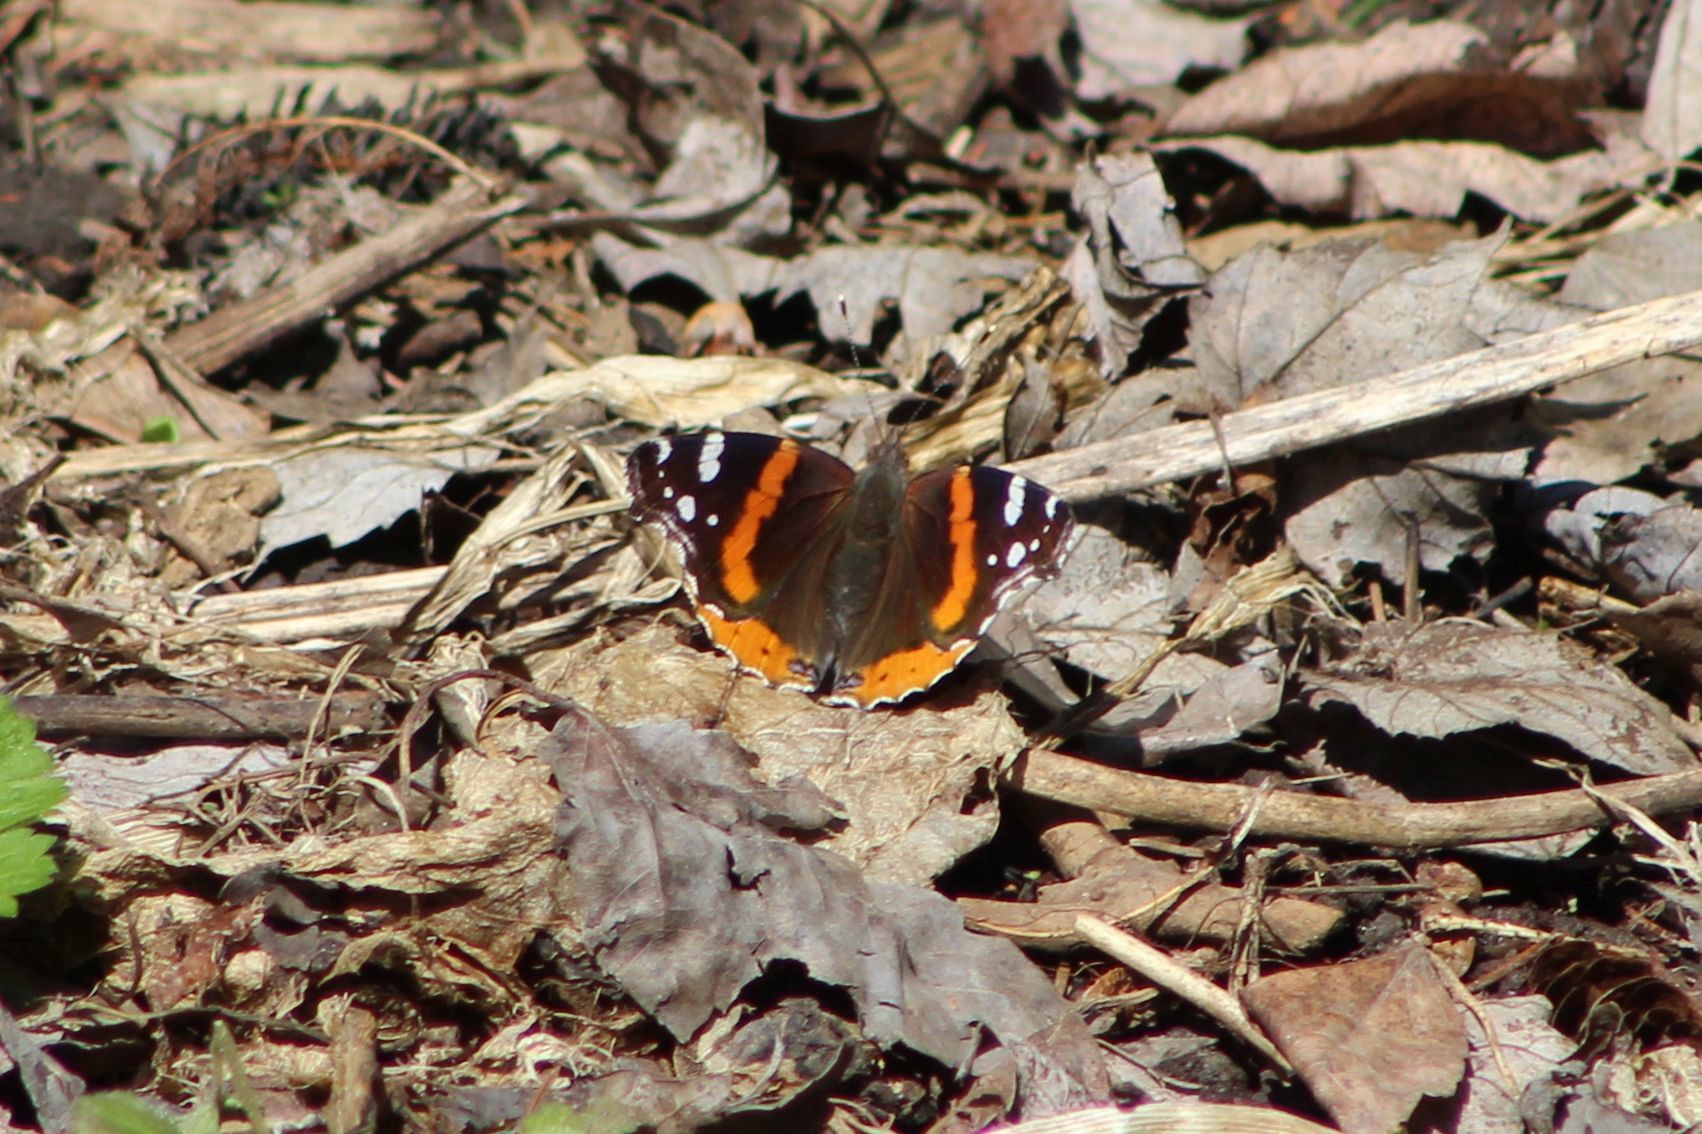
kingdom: Animalia
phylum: Arthropoda
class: Insecta
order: Lepidoptera
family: Nymphalidae
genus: Vanessa
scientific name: Vanessa atalanta
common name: Red admiral
